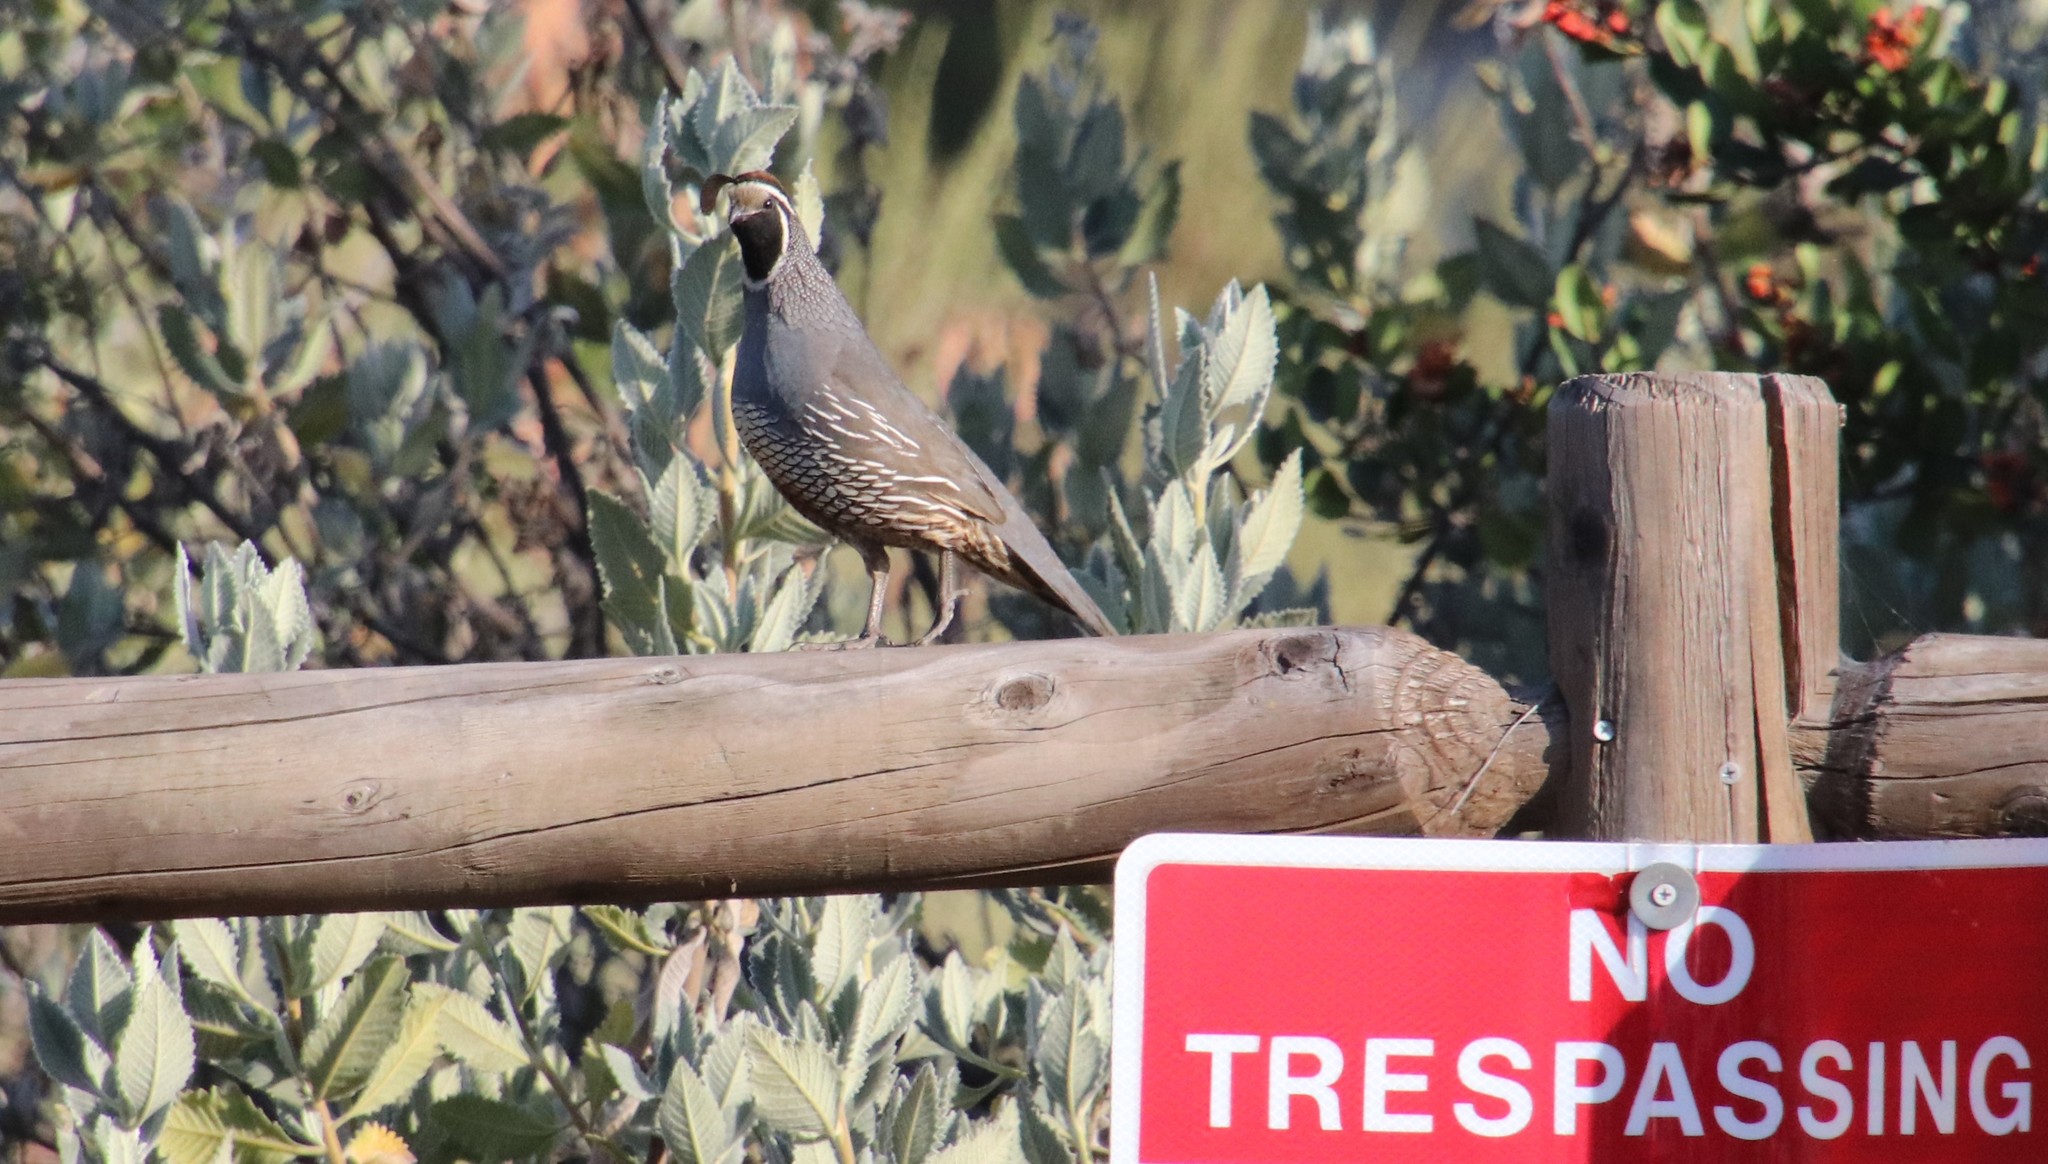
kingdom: Animalia
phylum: Chordata
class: Aves
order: Galliformes
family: Odontophoridae
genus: Callipepla
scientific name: Callipepla californica
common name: California quail
